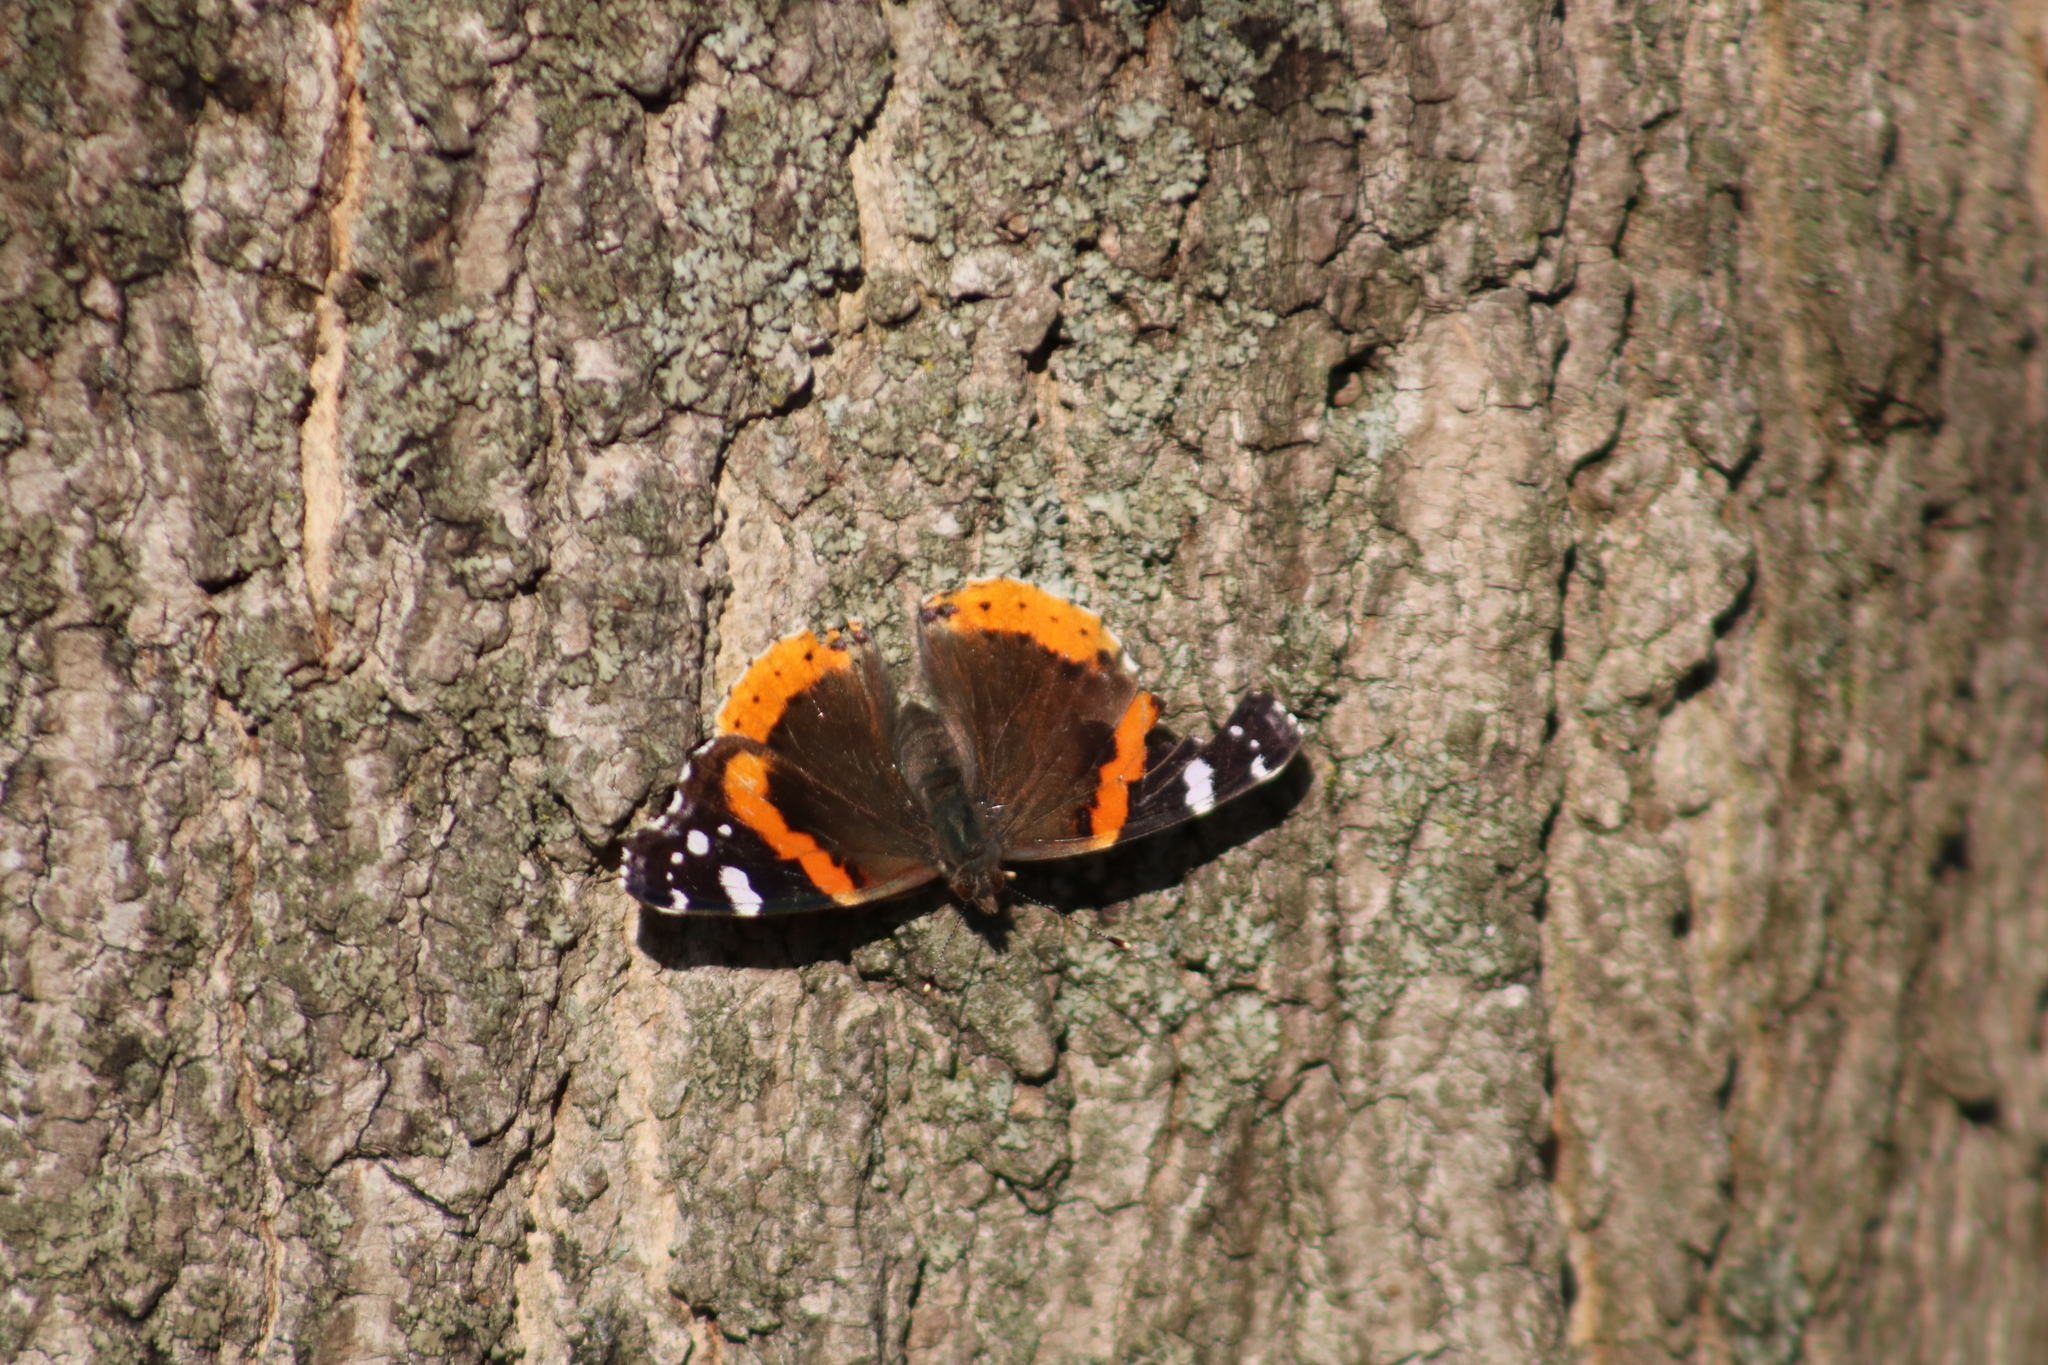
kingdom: Animalia
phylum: Arthropoda
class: Insecta
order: Lepidoptera
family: Nymphalidae
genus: Vanessa
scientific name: Vanessa atalanta
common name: Red admiral
